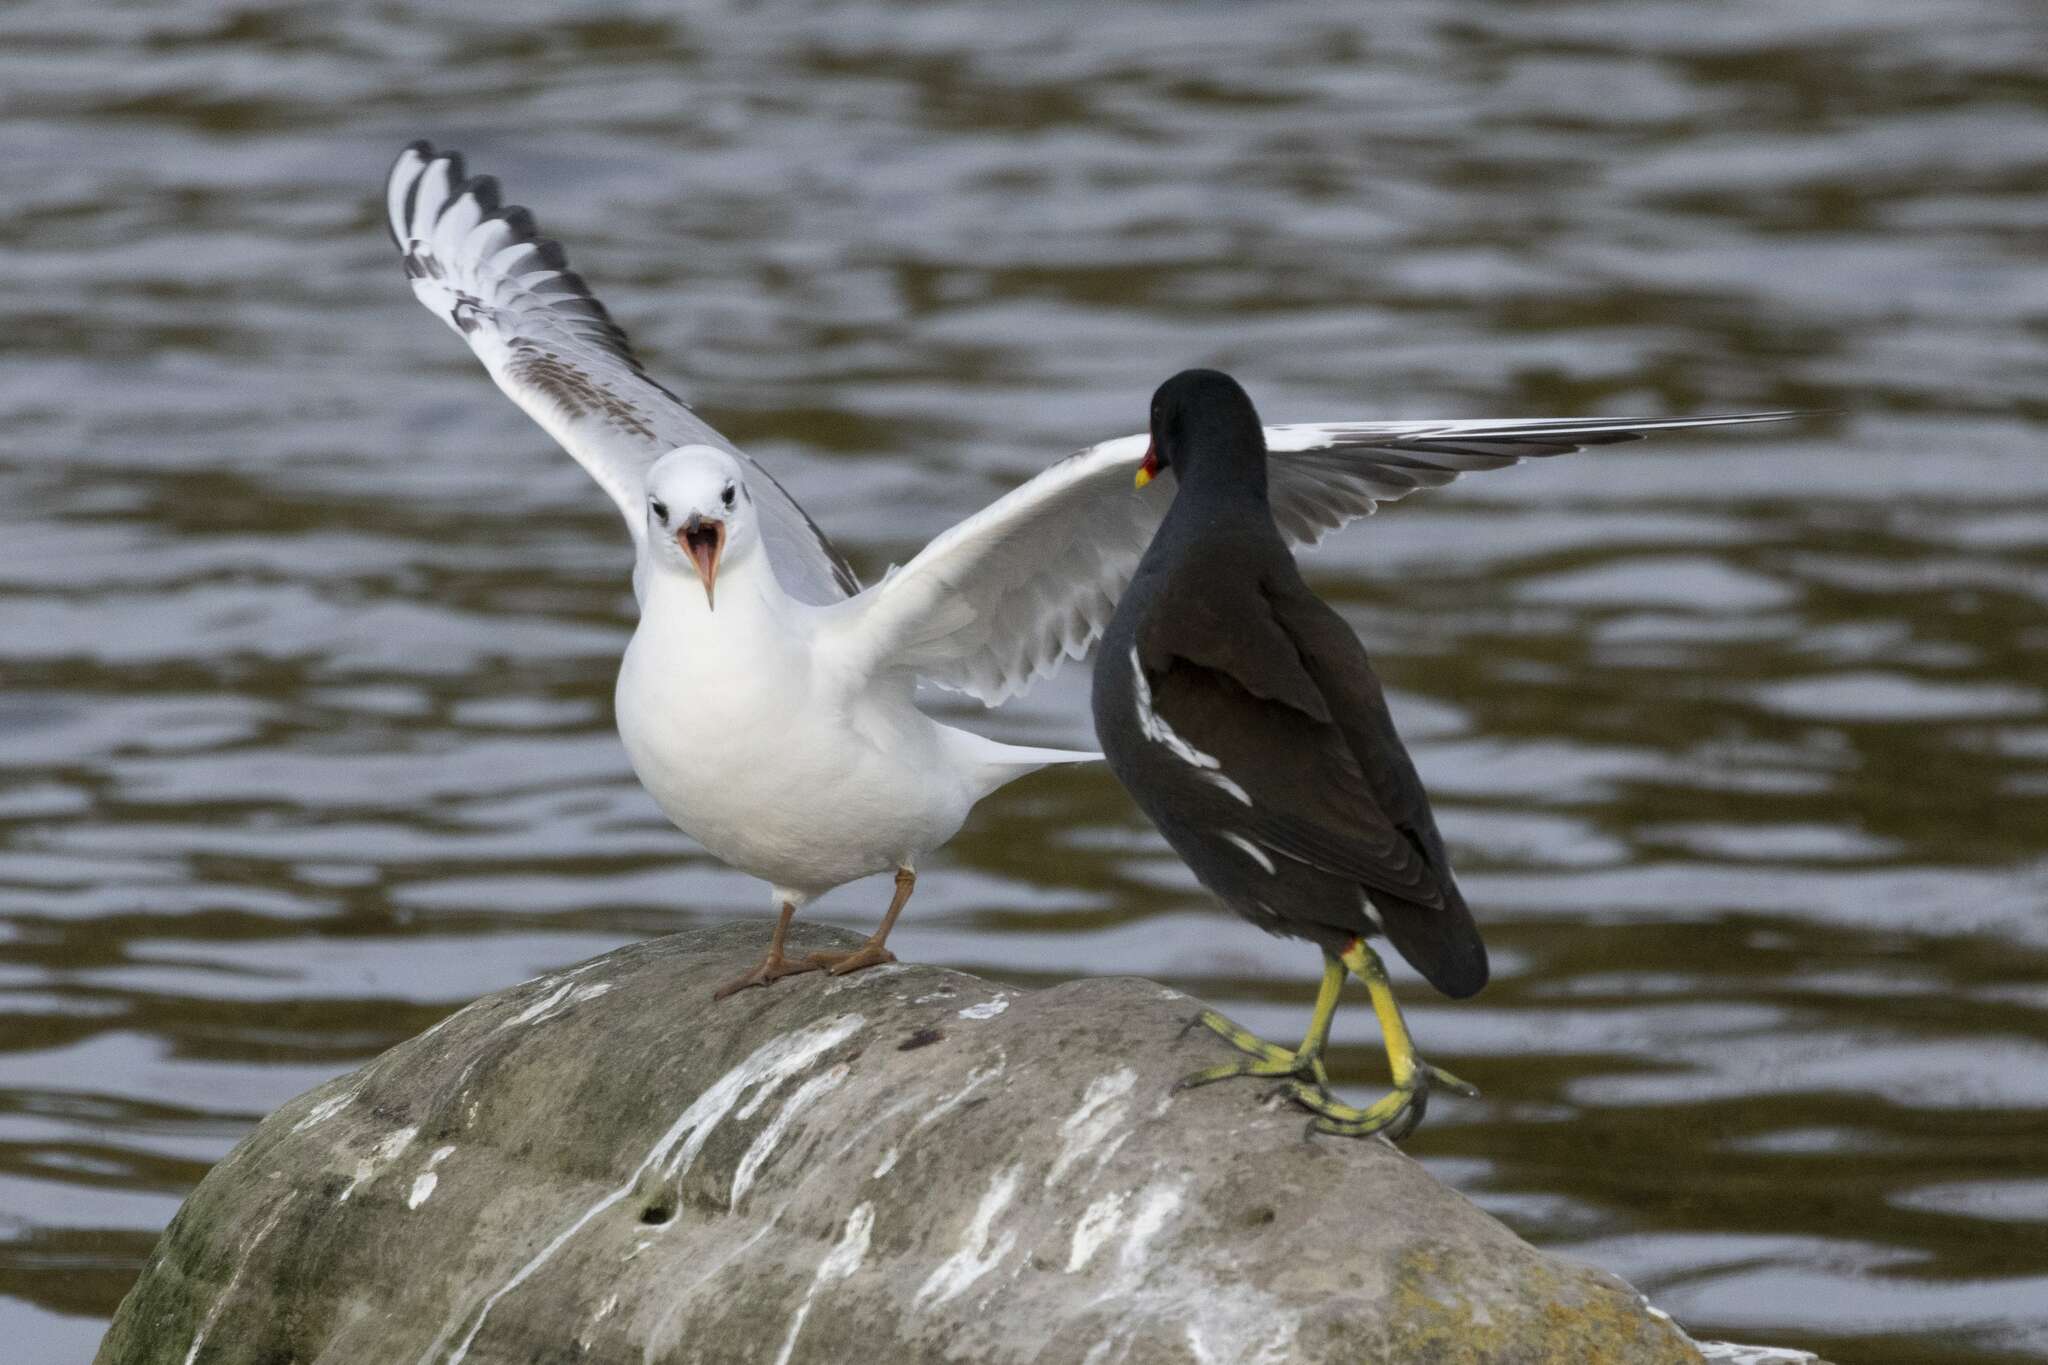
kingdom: Animalia
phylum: Chordata
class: Aves
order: Charadriiformes
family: Laridae
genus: Chroicocephalus
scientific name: Chroicocephalus ridibundus
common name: Black-headed gull
